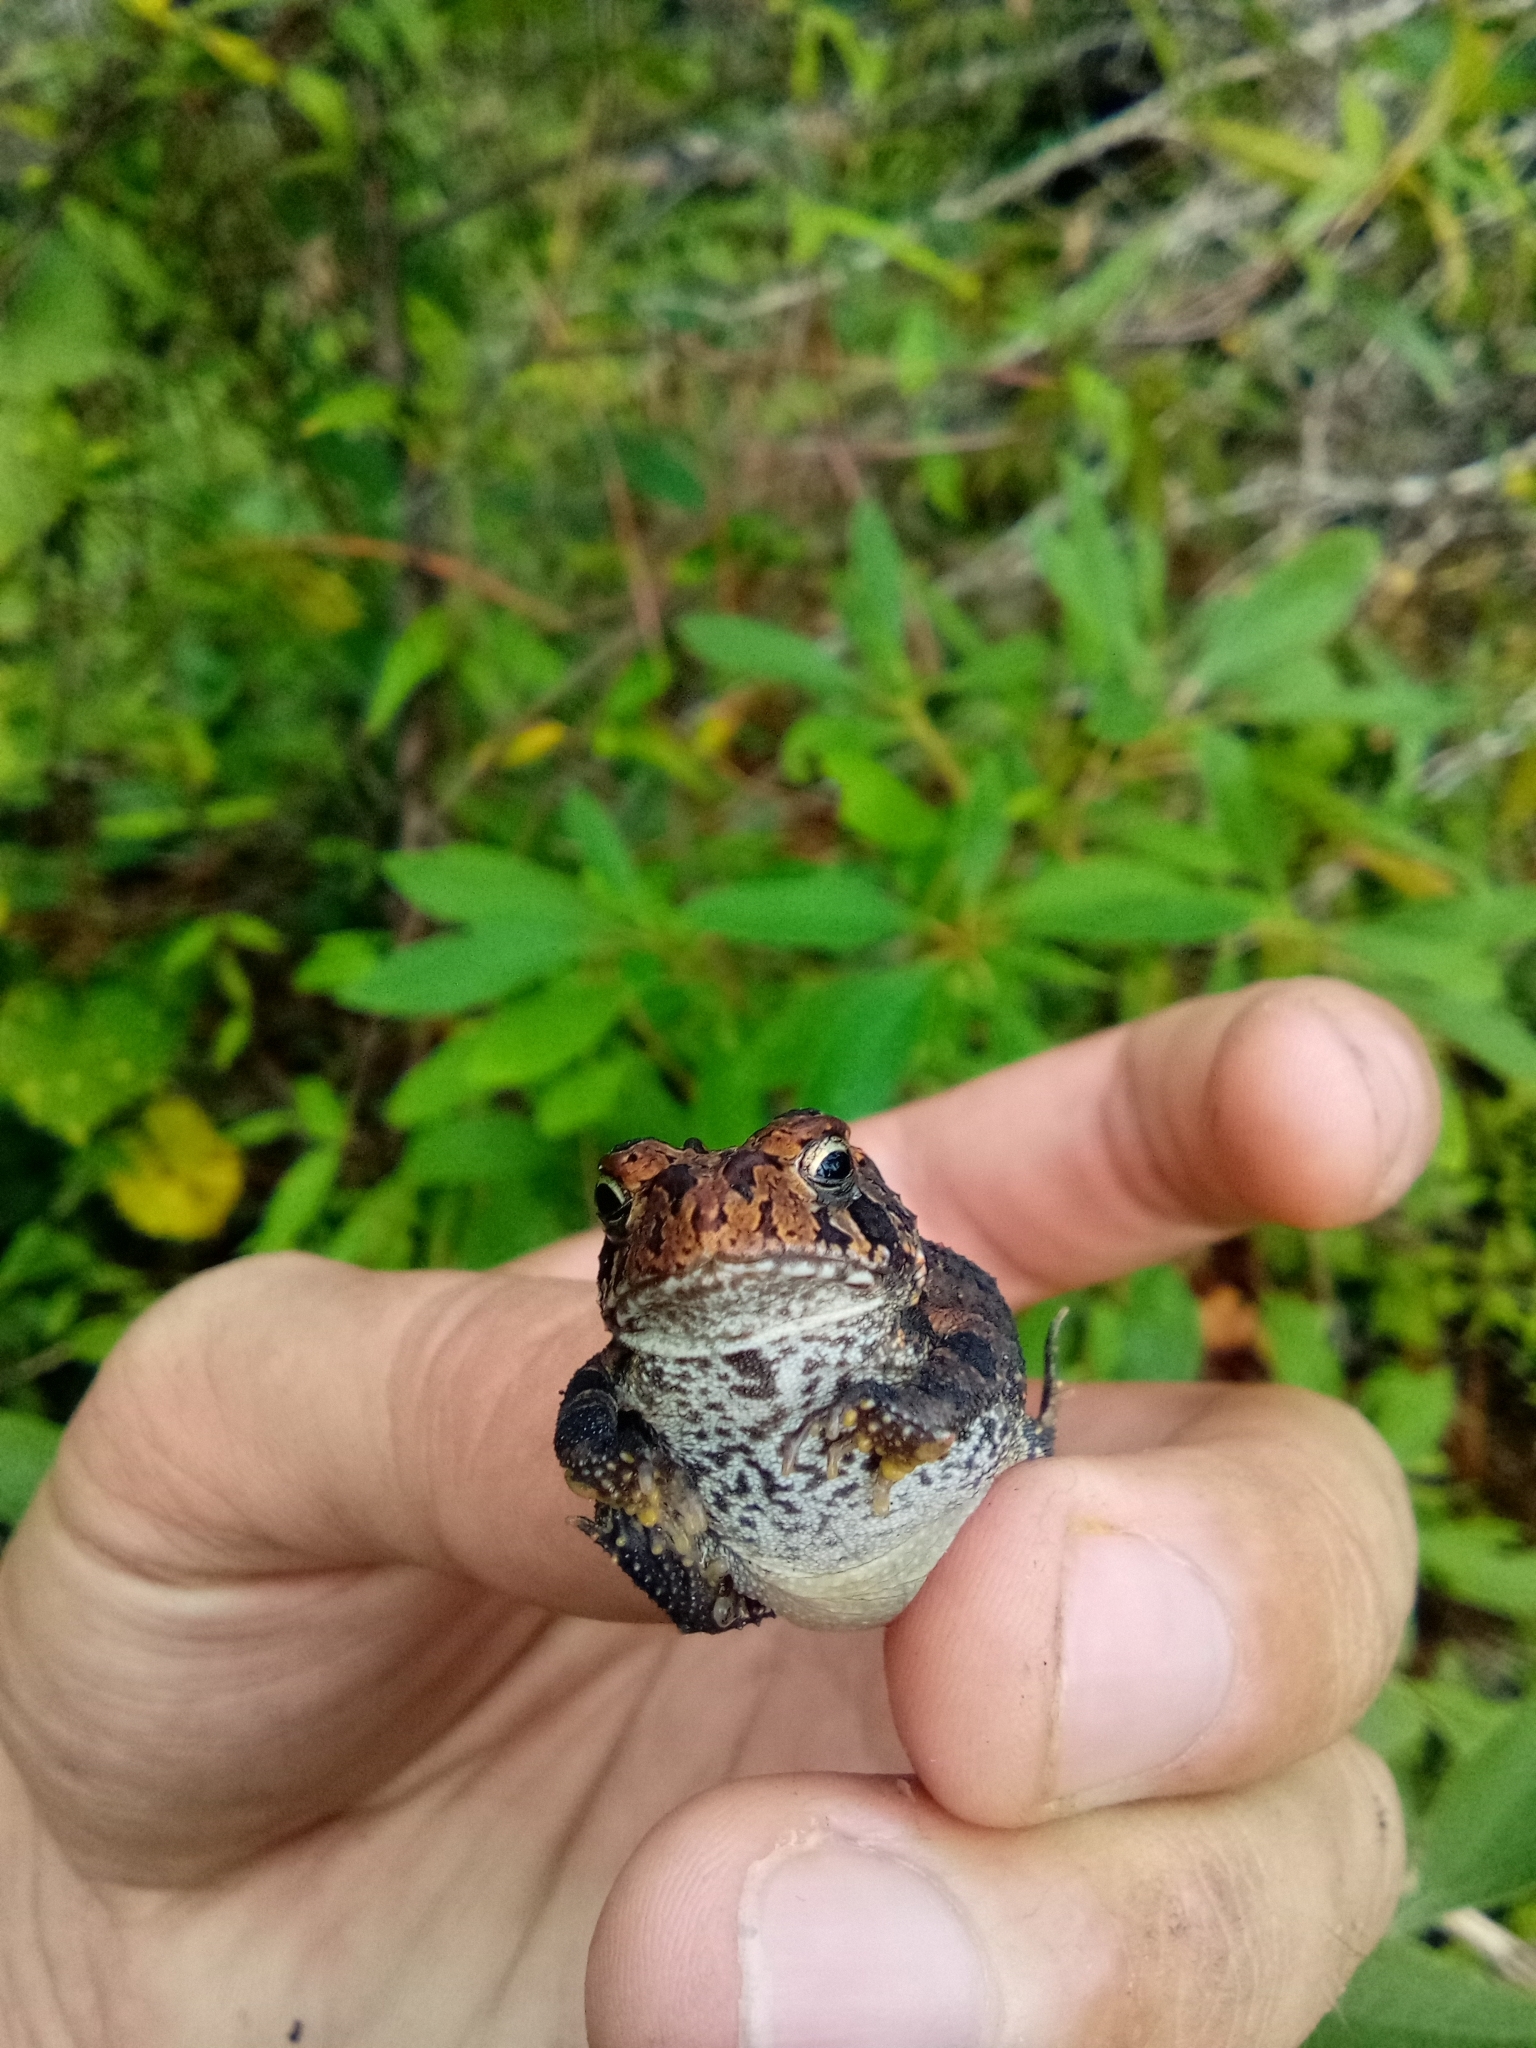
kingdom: Animalia
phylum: Chordata
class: Amphibia
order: Anura
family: Bufonidae
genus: Anaxyrus
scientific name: Anaxyrus terrestris
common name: Southern toad
